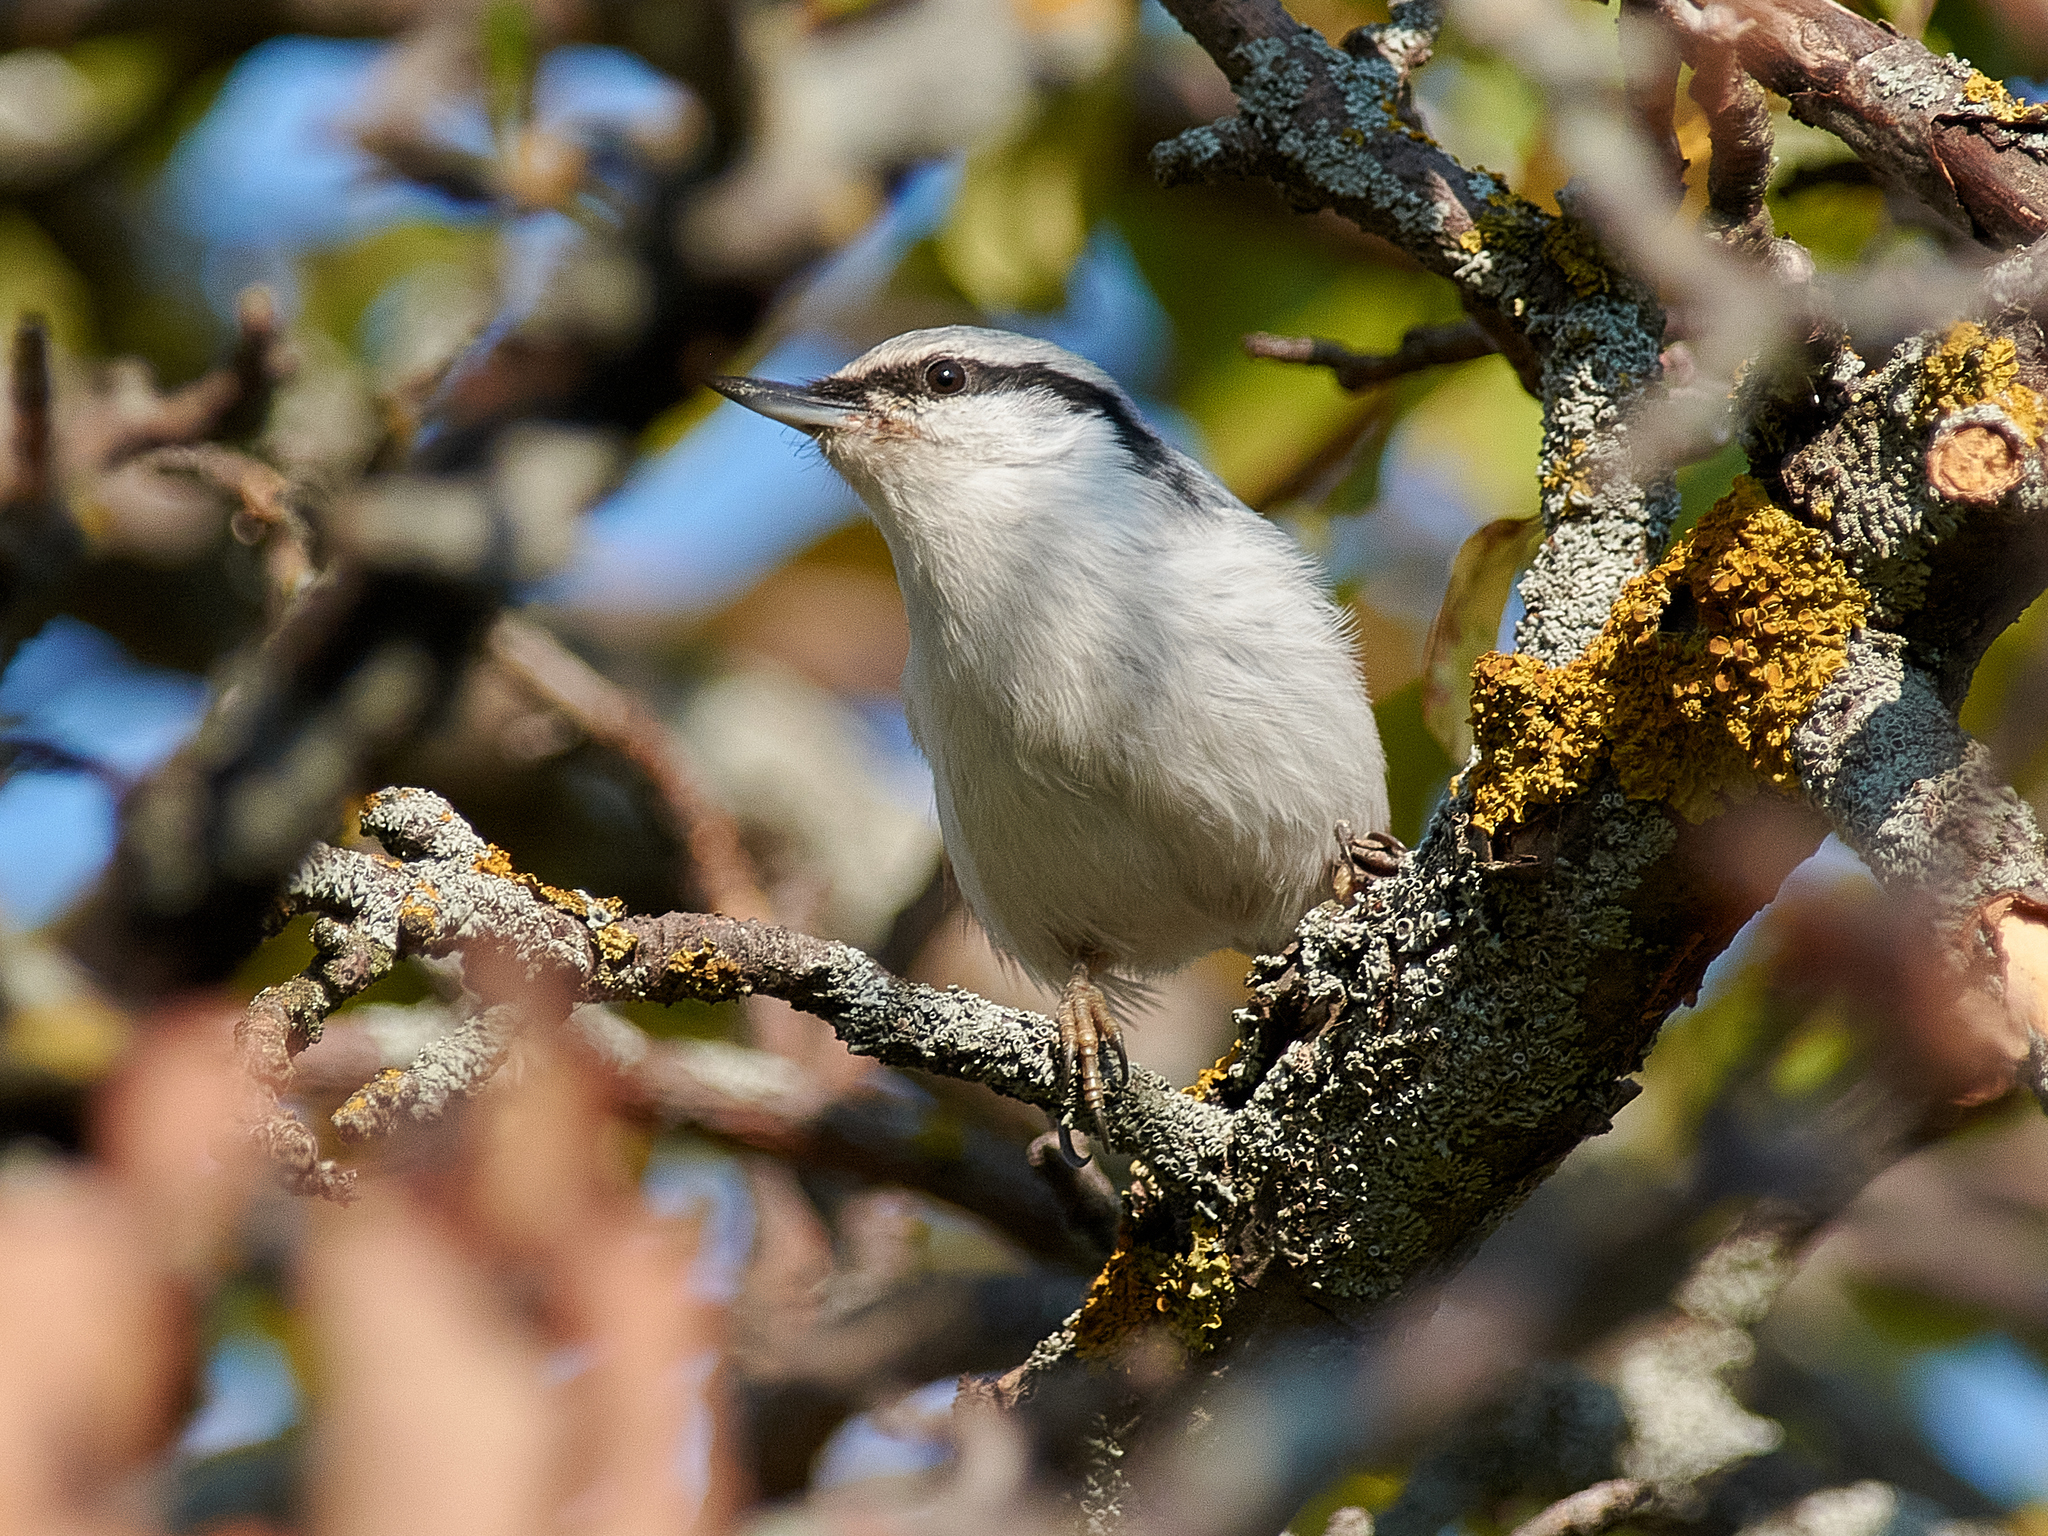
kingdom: Animalia
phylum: Chordata
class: Aves
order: Passeriformes
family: Sittidae
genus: Sitta
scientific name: Sitta europaea
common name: Eurasian nuthatch
